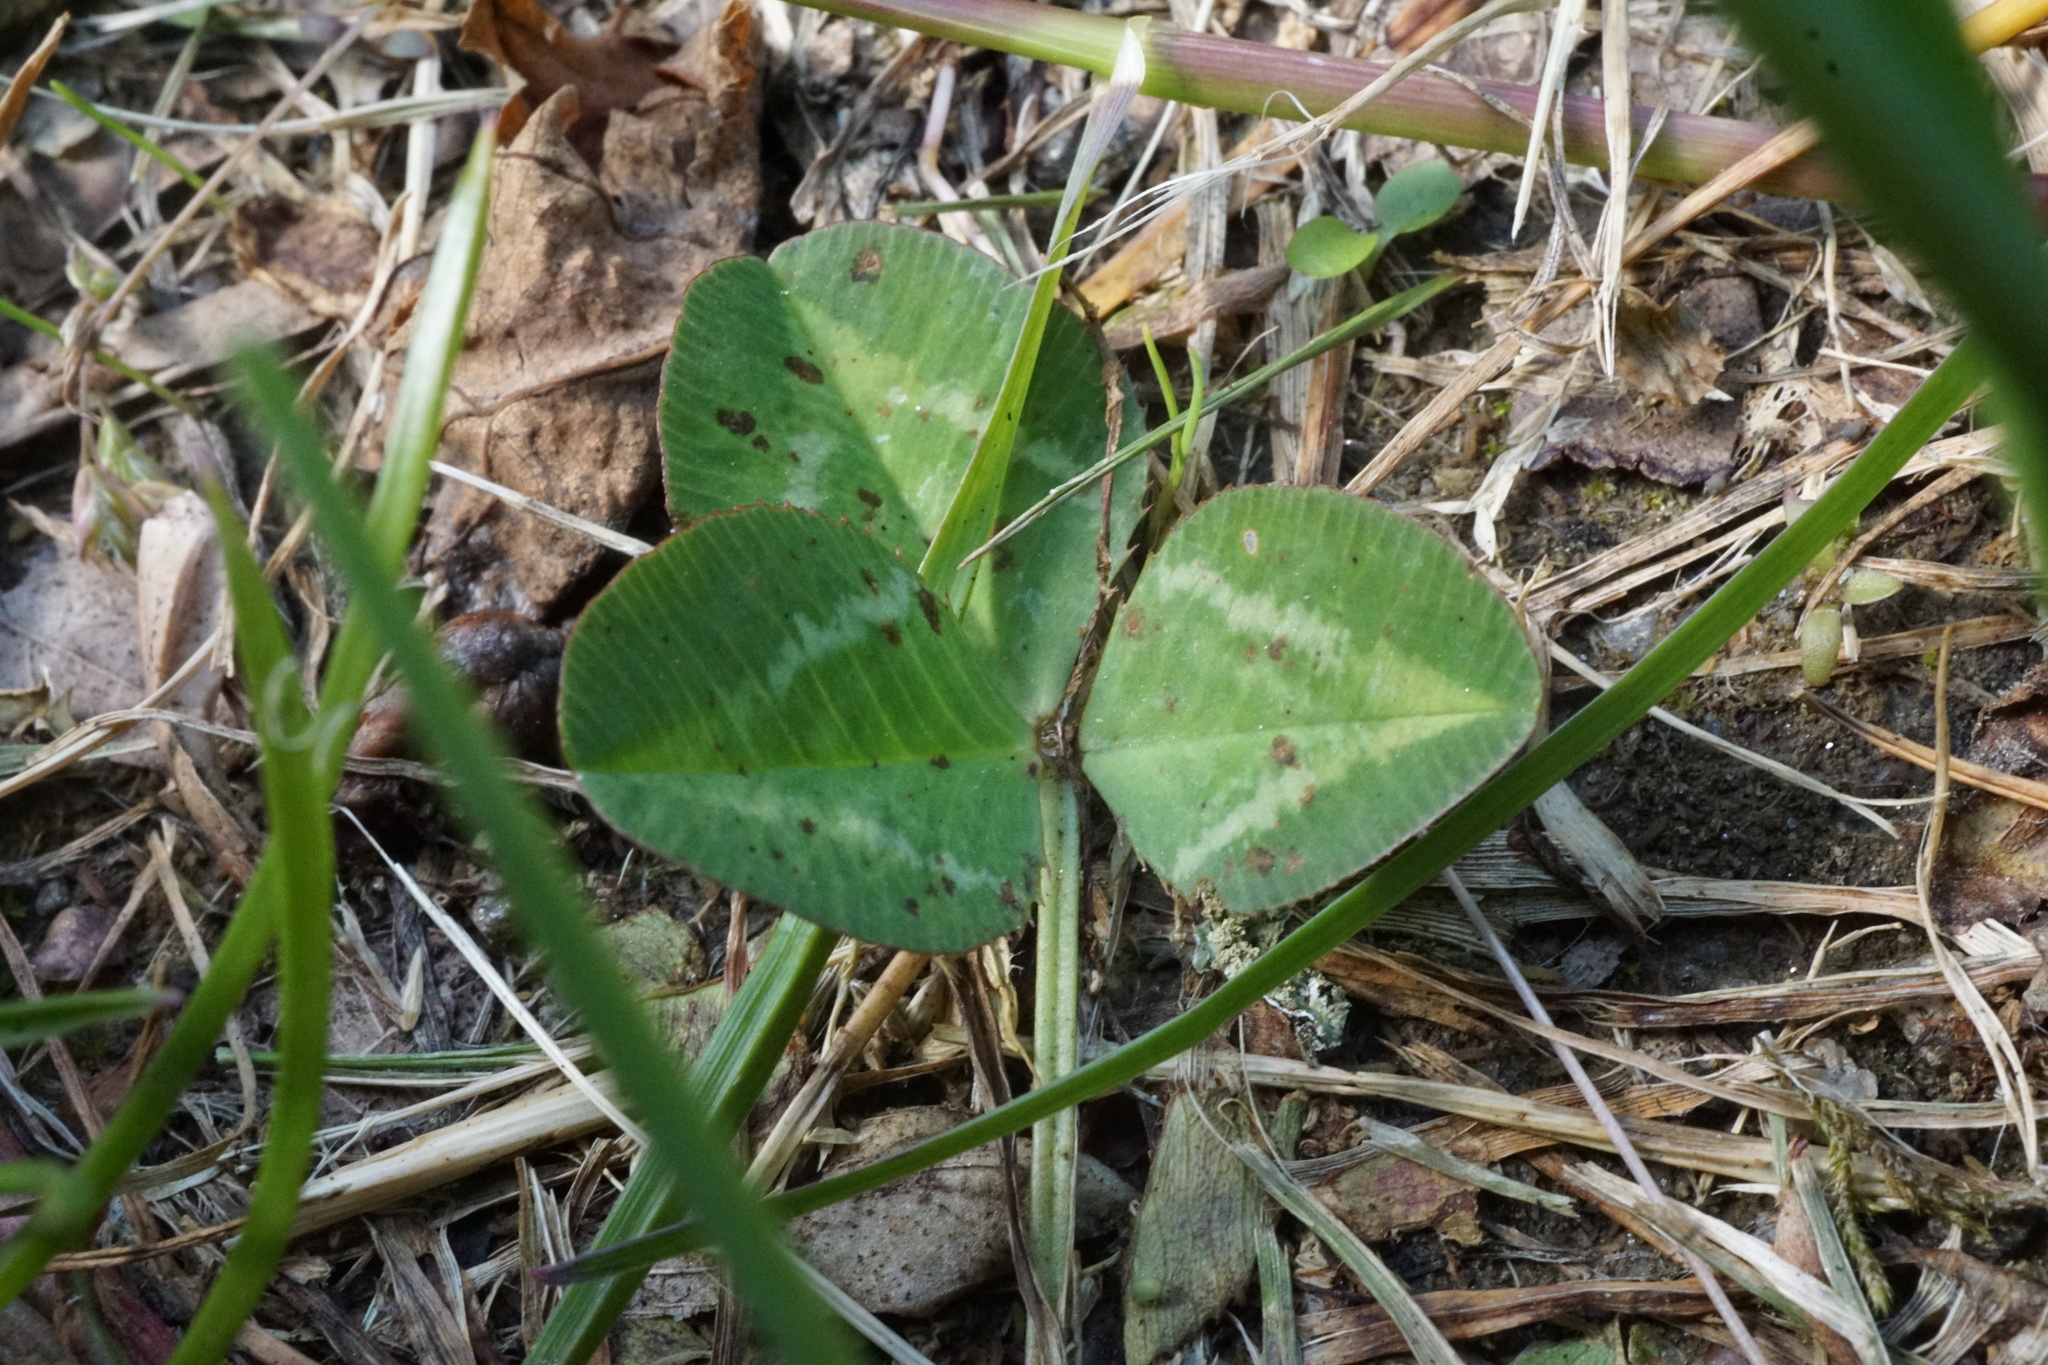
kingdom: Plantae
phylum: Tracheophyta
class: Magnoliopsida
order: Fabales
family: Fabaceae
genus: Trifolium
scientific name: Trifolium repens
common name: White clover
